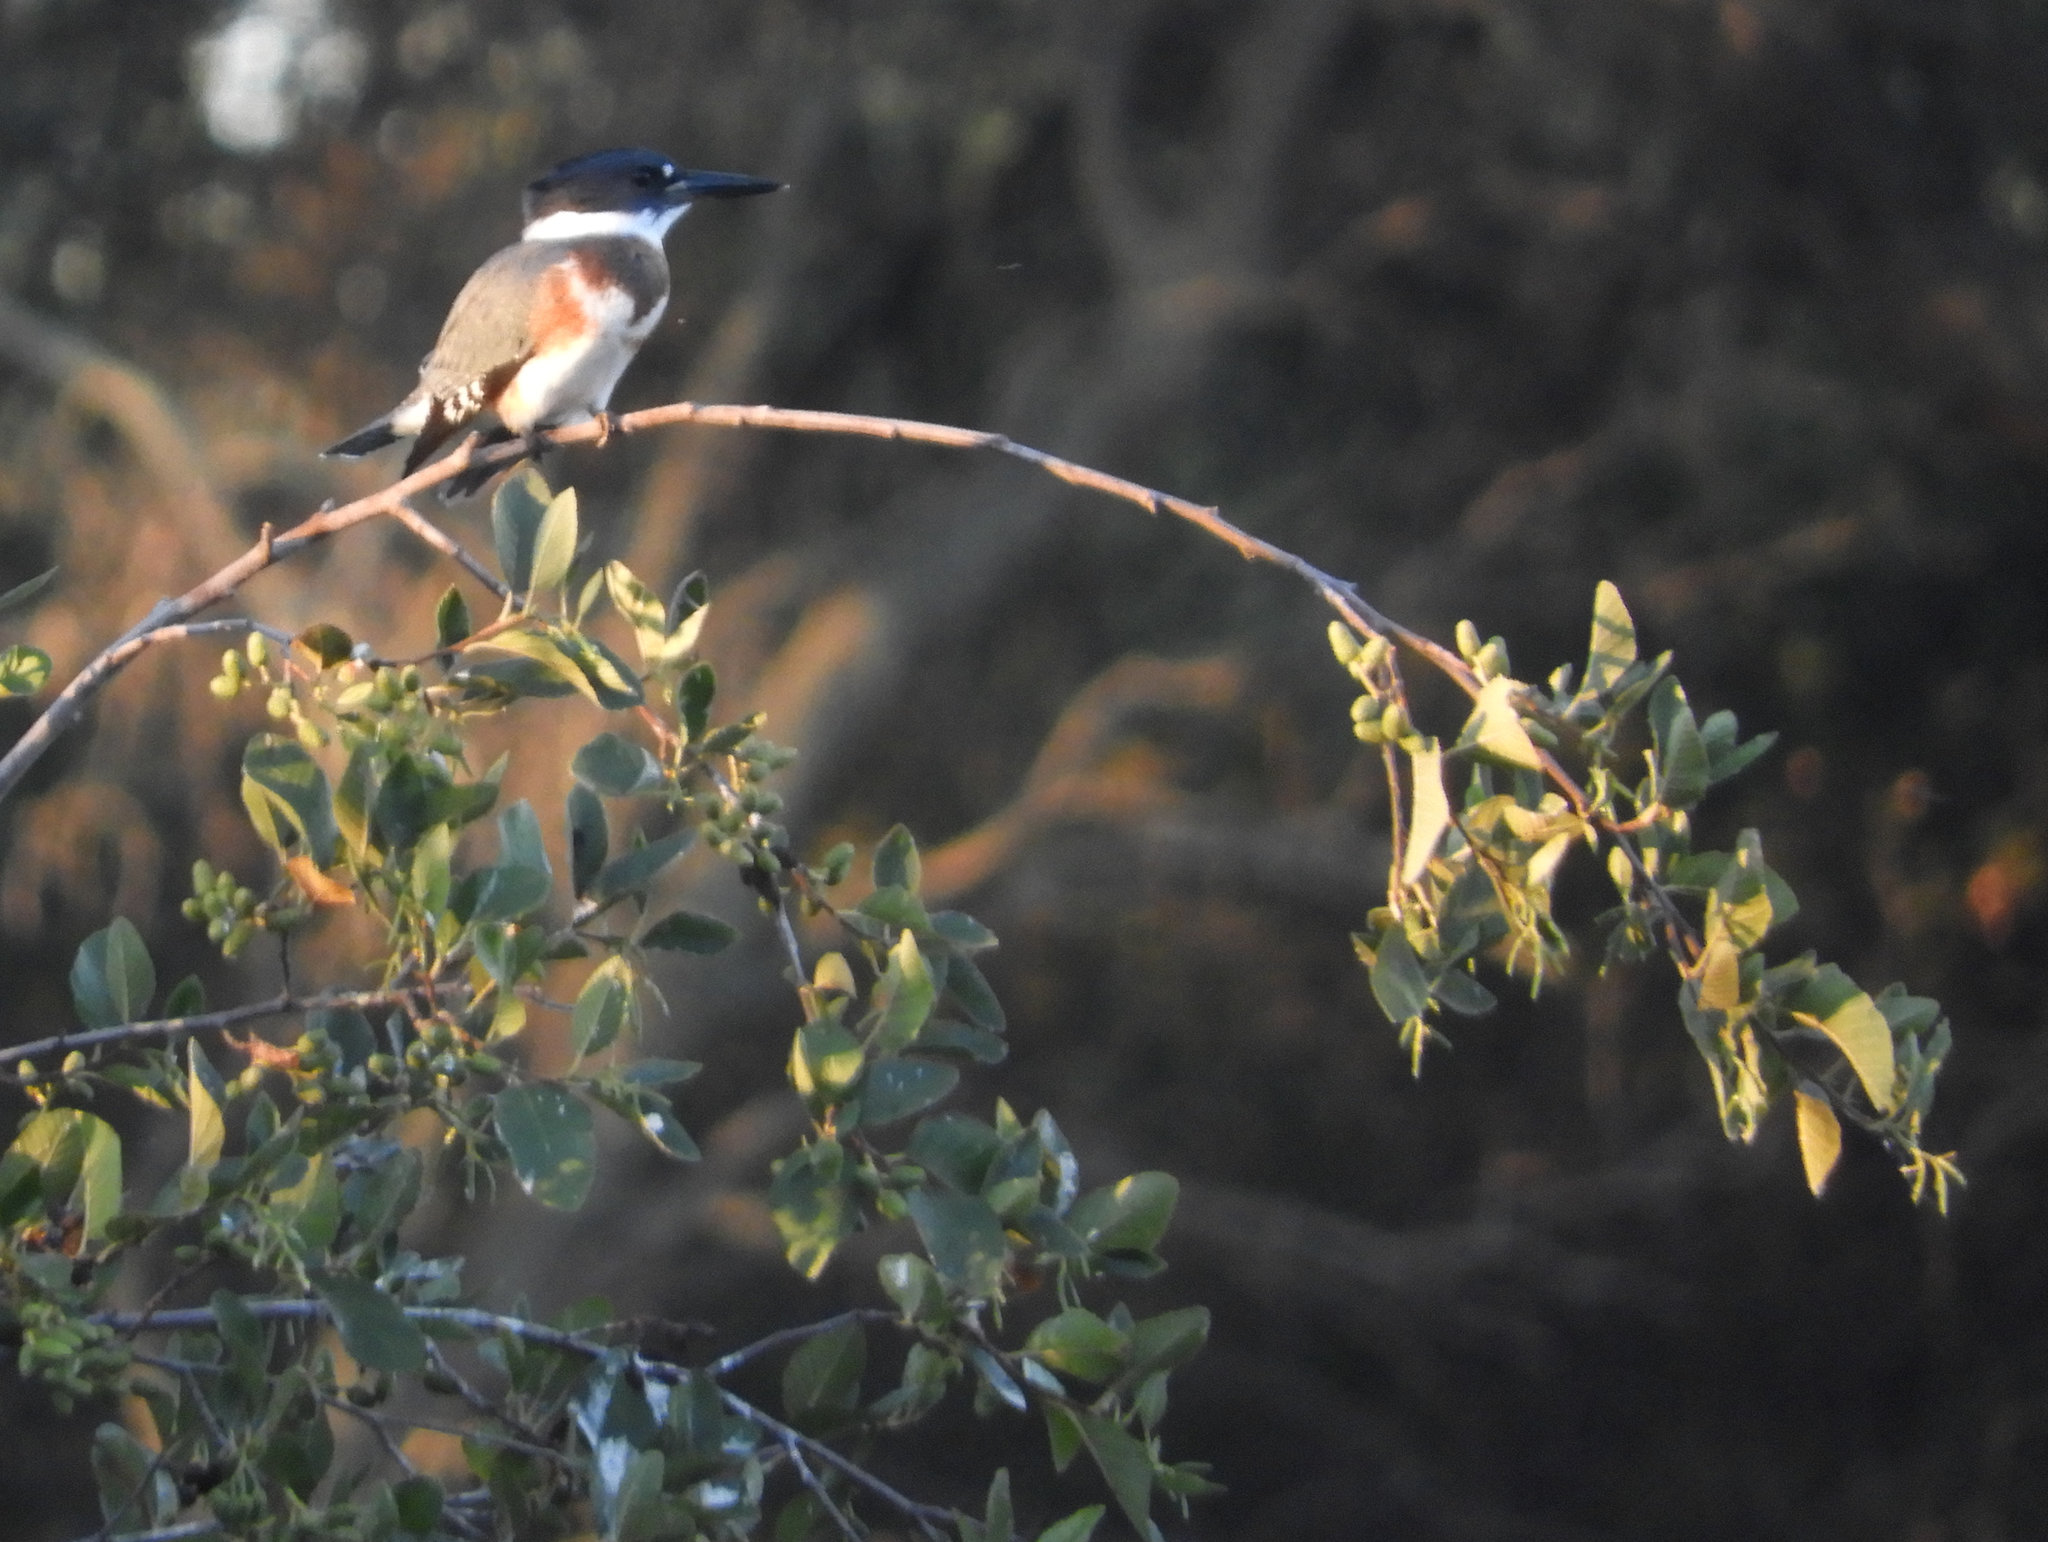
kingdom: Animalia
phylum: Chordata
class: Aves
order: Coraciiformes
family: Alcedinidae
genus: Megaceryle
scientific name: Megaceryle alcyon
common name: Belted kingfisher
